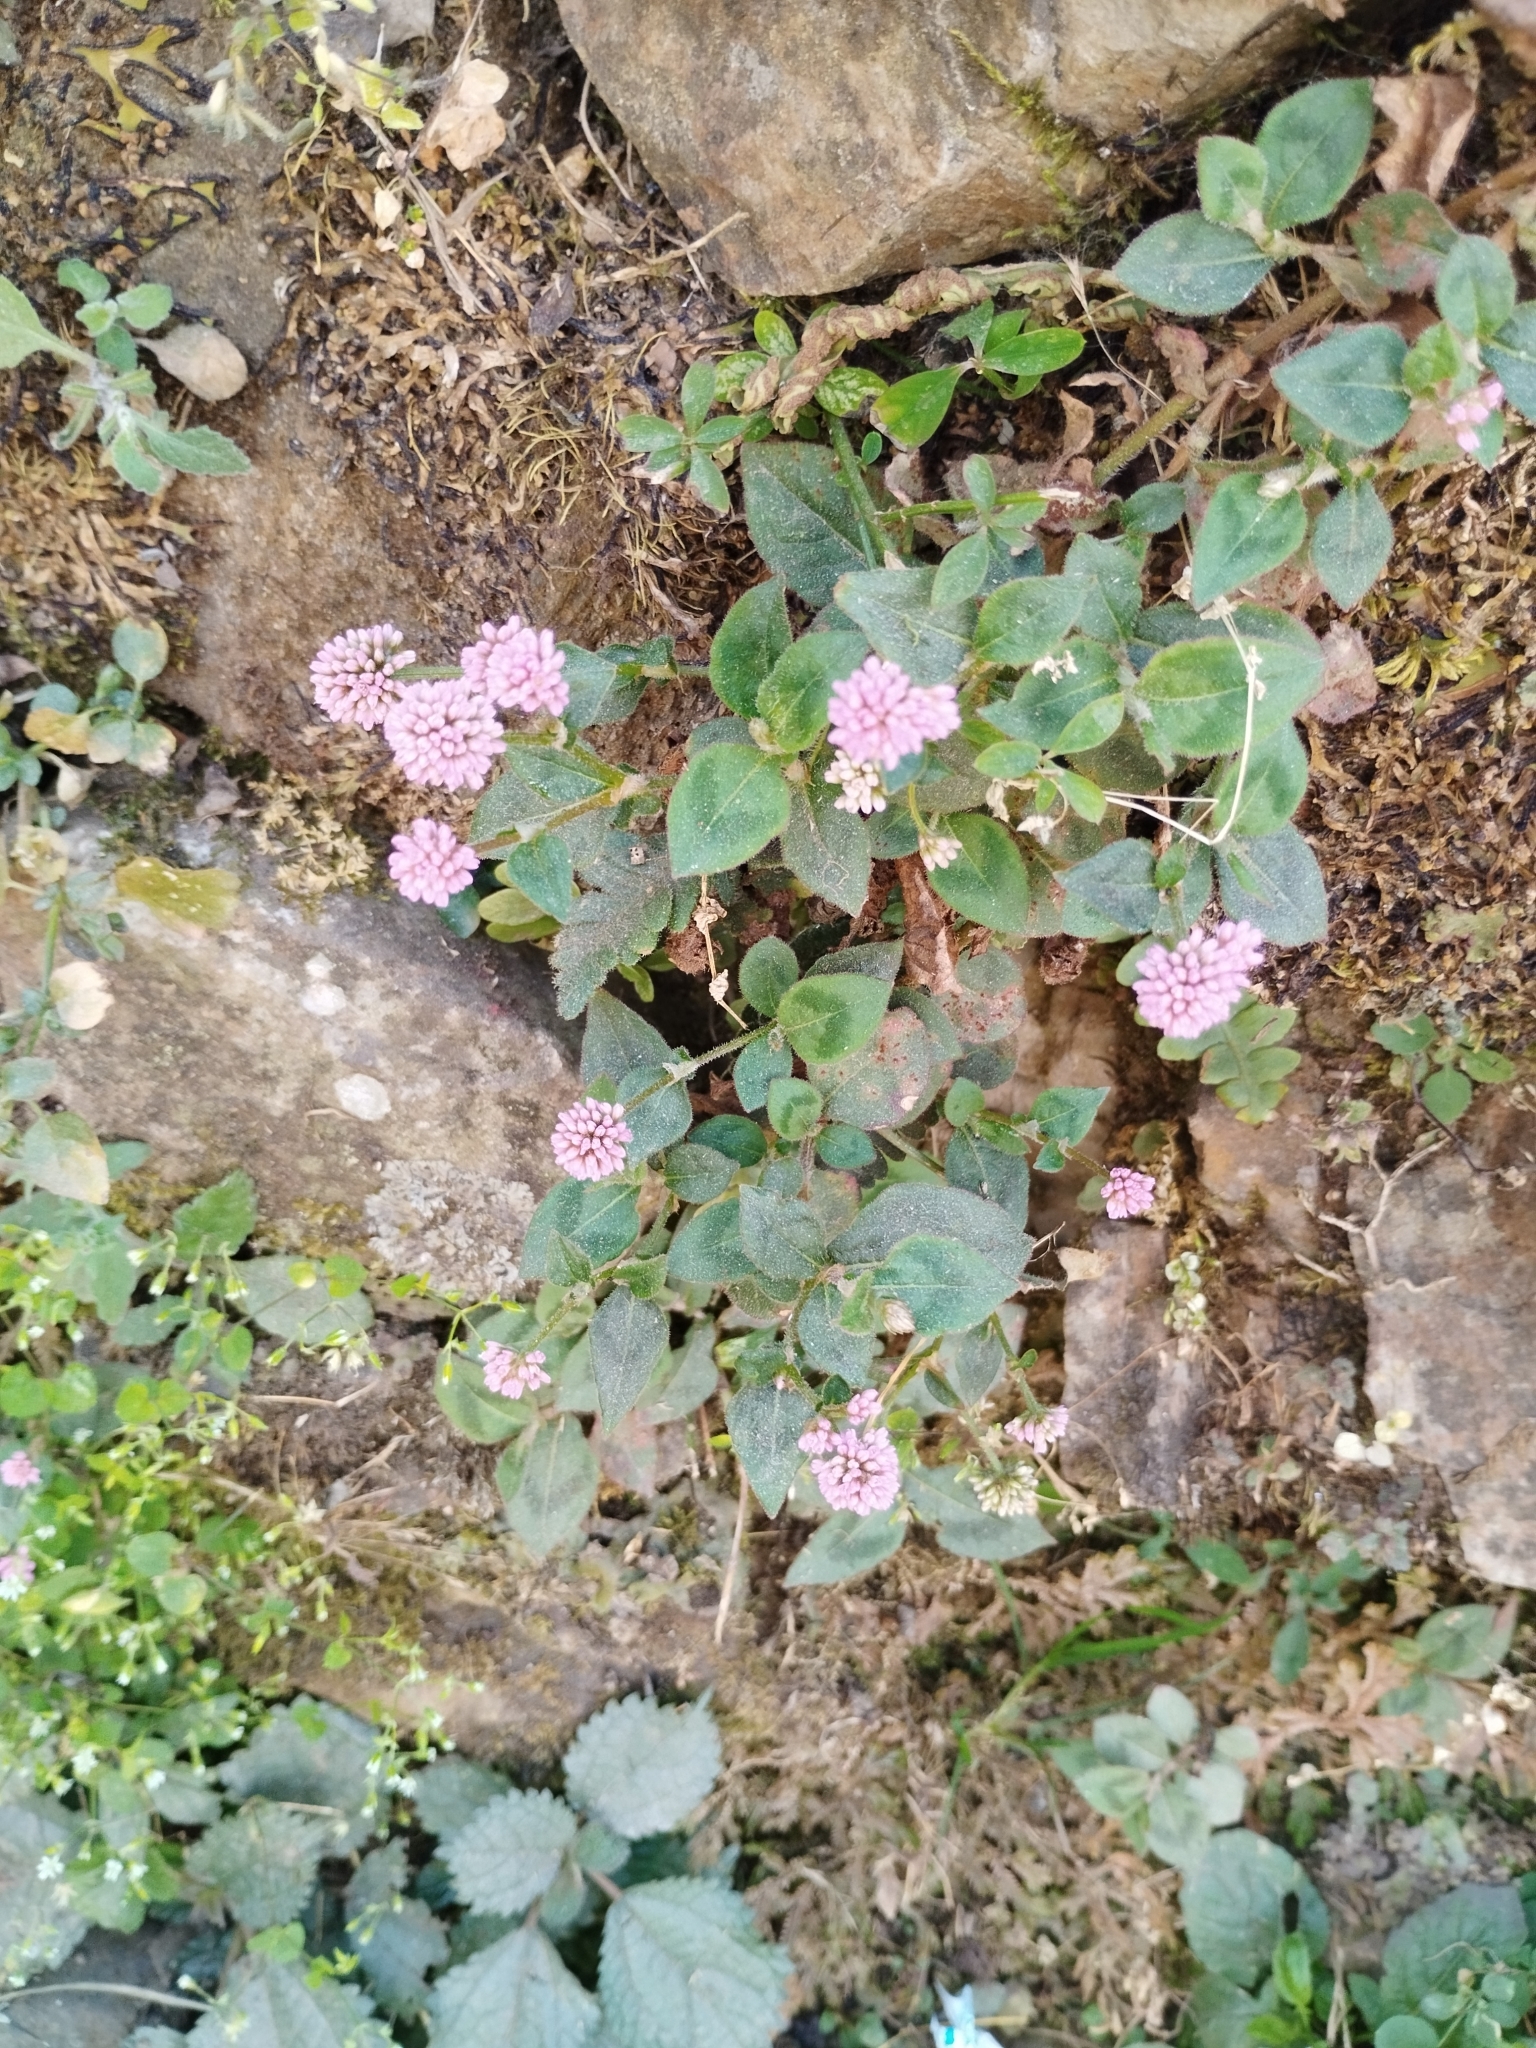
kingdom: Plantae
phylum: Tracheophyta
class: Magnoliopsida
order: Caryophyllales
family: Polygonaceae
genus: Persicaria
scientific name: Persicaria capitata
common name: Pinkhead smartweed
